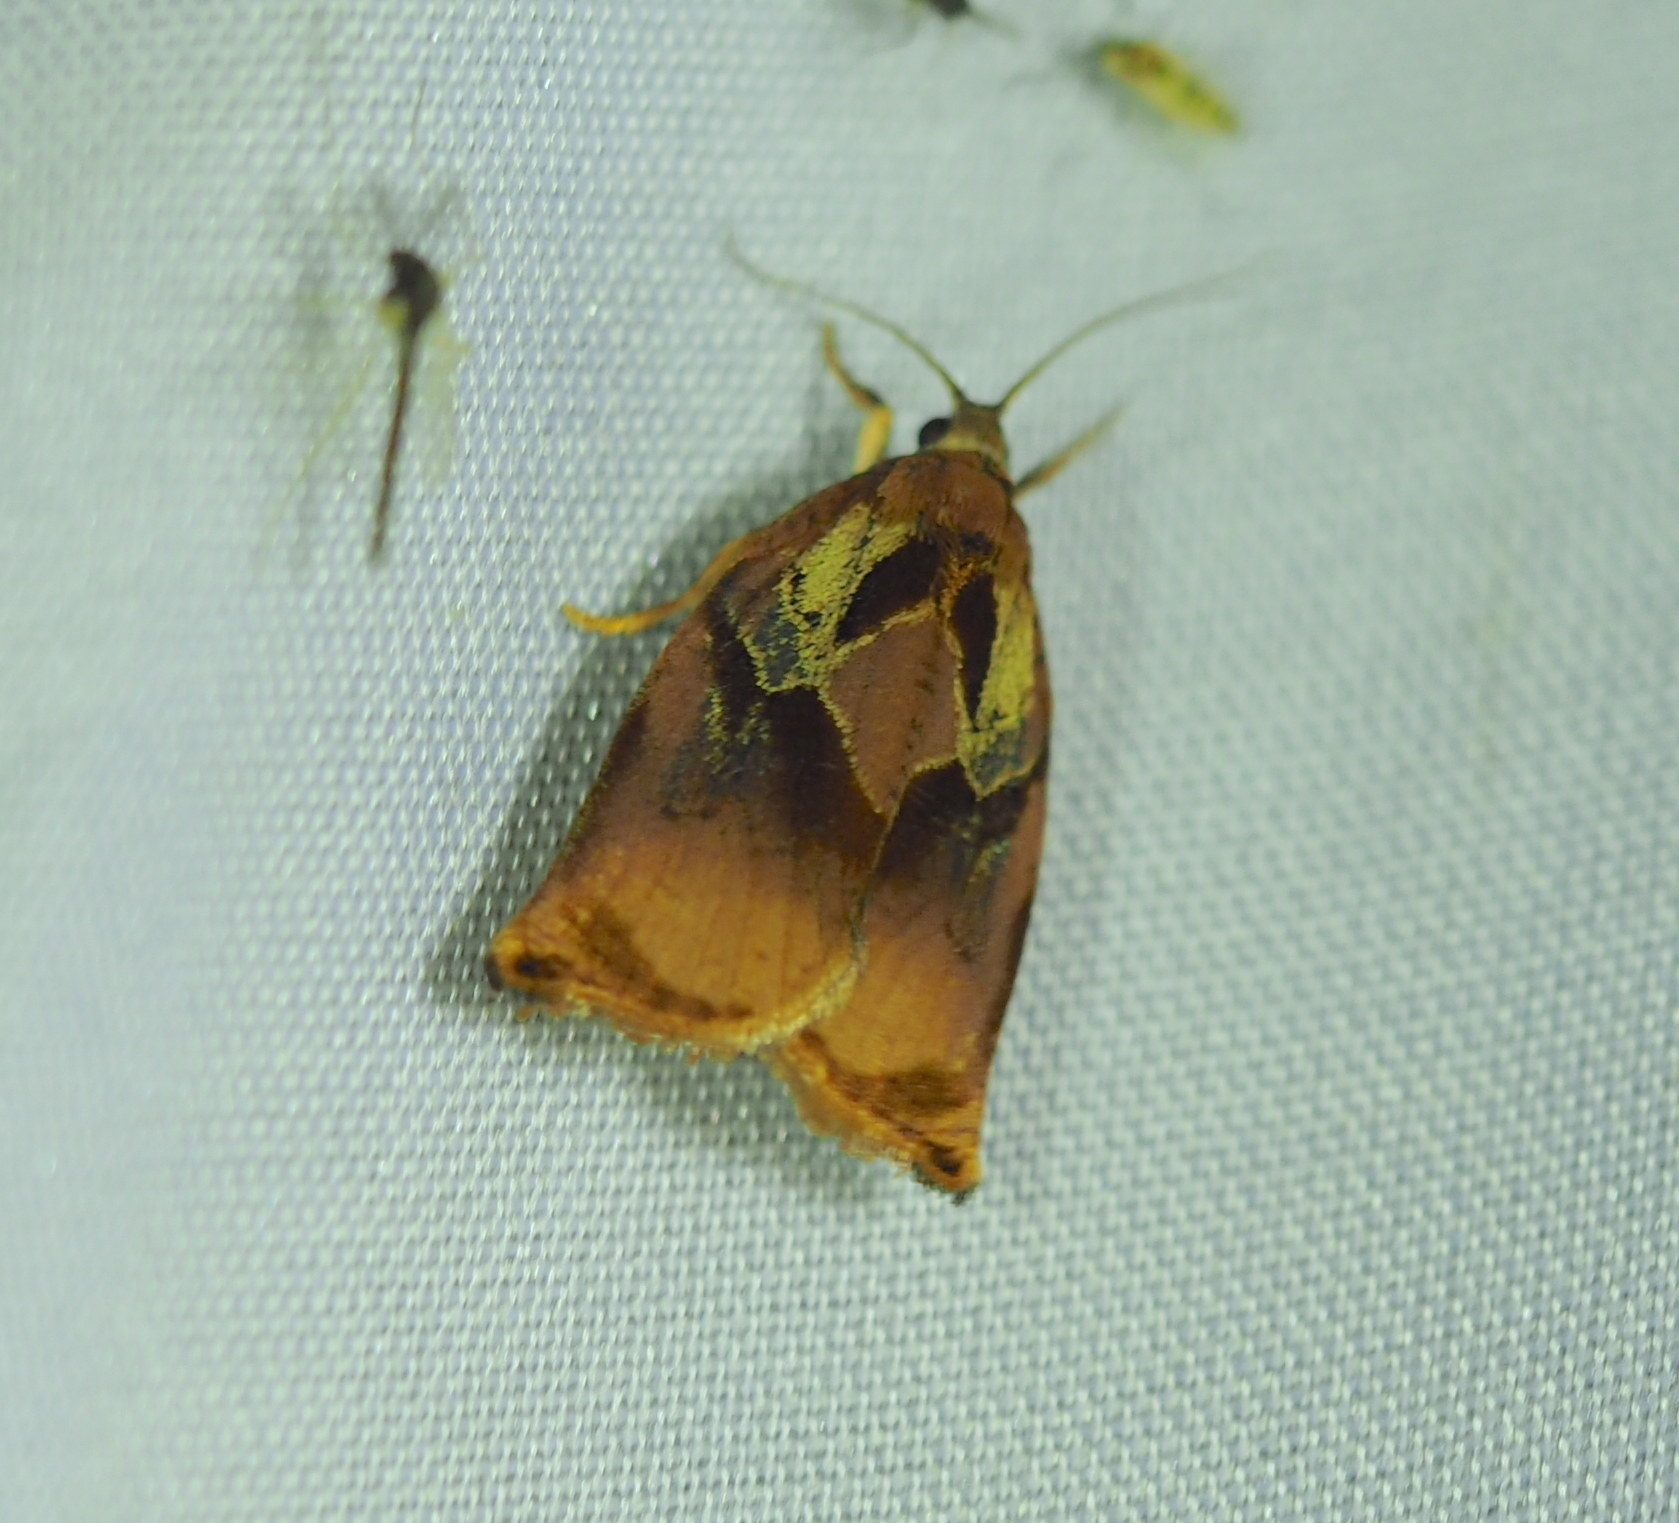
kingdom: Animalia
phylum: Arthropoda
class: Insecta
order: Lepidoptera
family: Tortricidae
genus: Archips
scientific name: Archips podana
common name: Large fruit-tree tortrix
